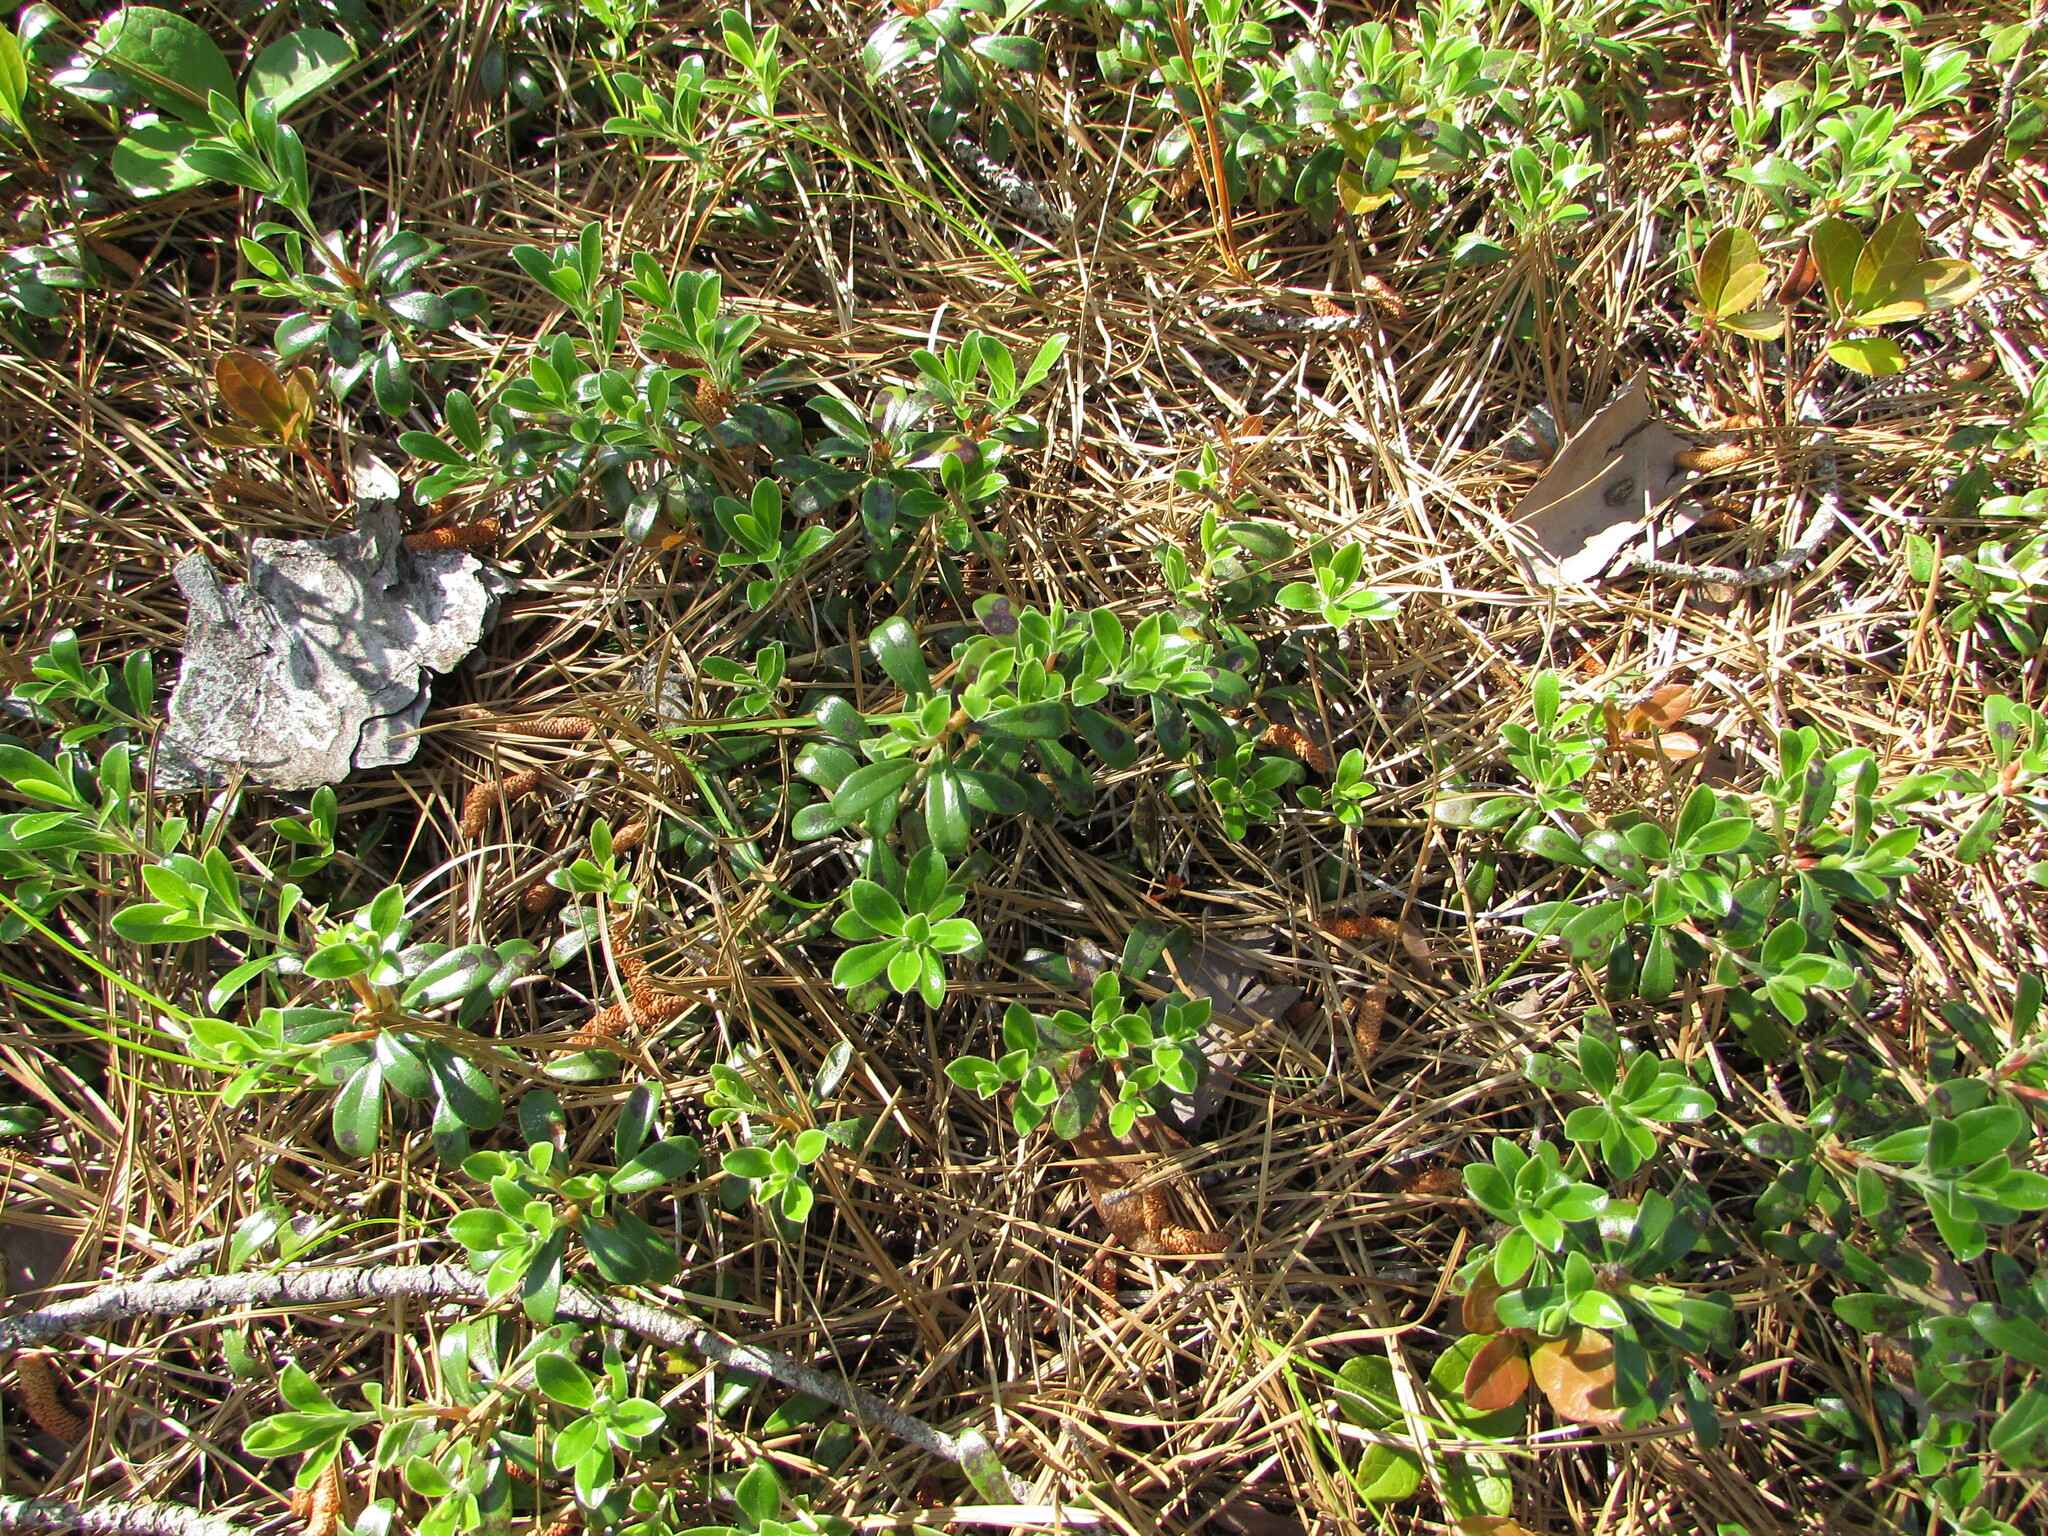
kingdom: Plantae
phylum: Tracheophyta
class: Magnoliopsida
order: Ericales
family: Ericaceae
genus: Arctostaphylos
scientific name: Arctostaphylos uva-ursi
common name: Bearberry
